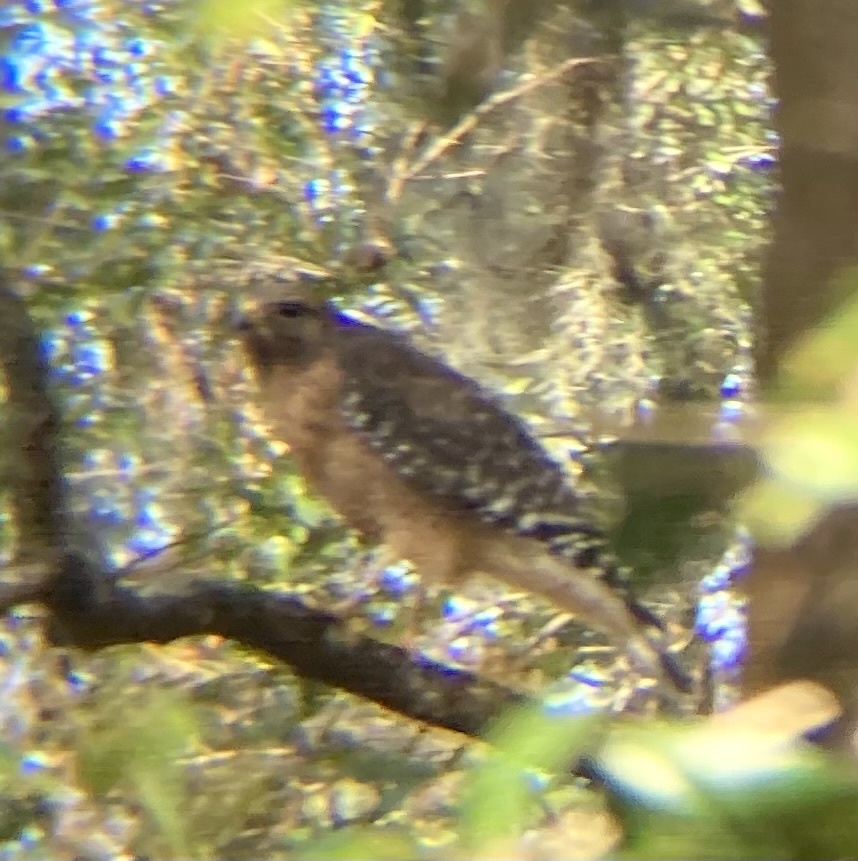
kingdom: Animalia
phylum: Chordata
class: Aves
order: Accipitriformes
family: Accipitridae
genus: Buteo
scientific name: Buteo lineatus
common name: Red-shouldered hawk
